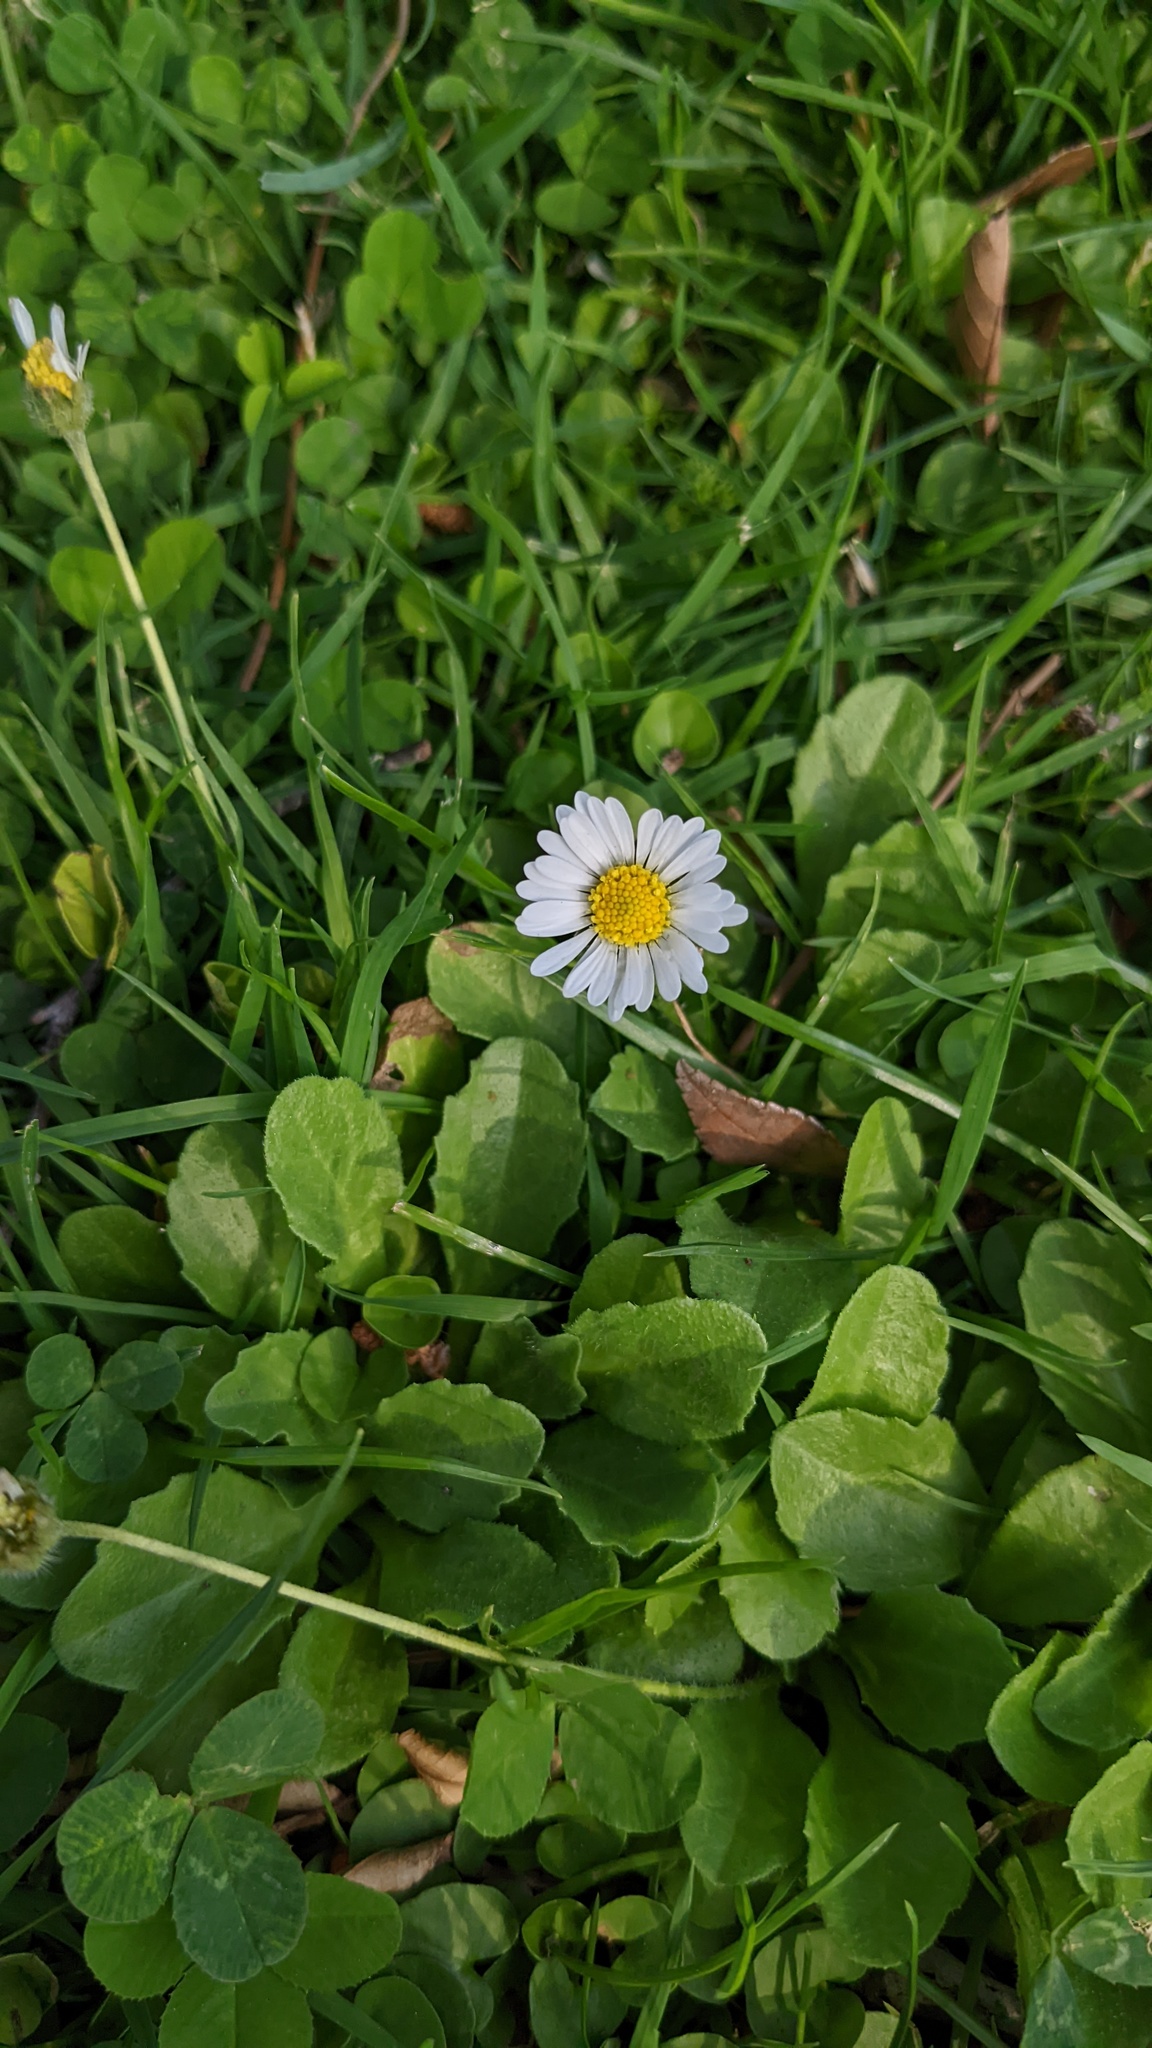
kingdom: Plantae
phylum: Tracheophyta
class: Magnoliopsida
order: Asterales
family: Asteraceae
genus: Bellis
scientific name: Bellis perennis
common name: Lawndaisy
